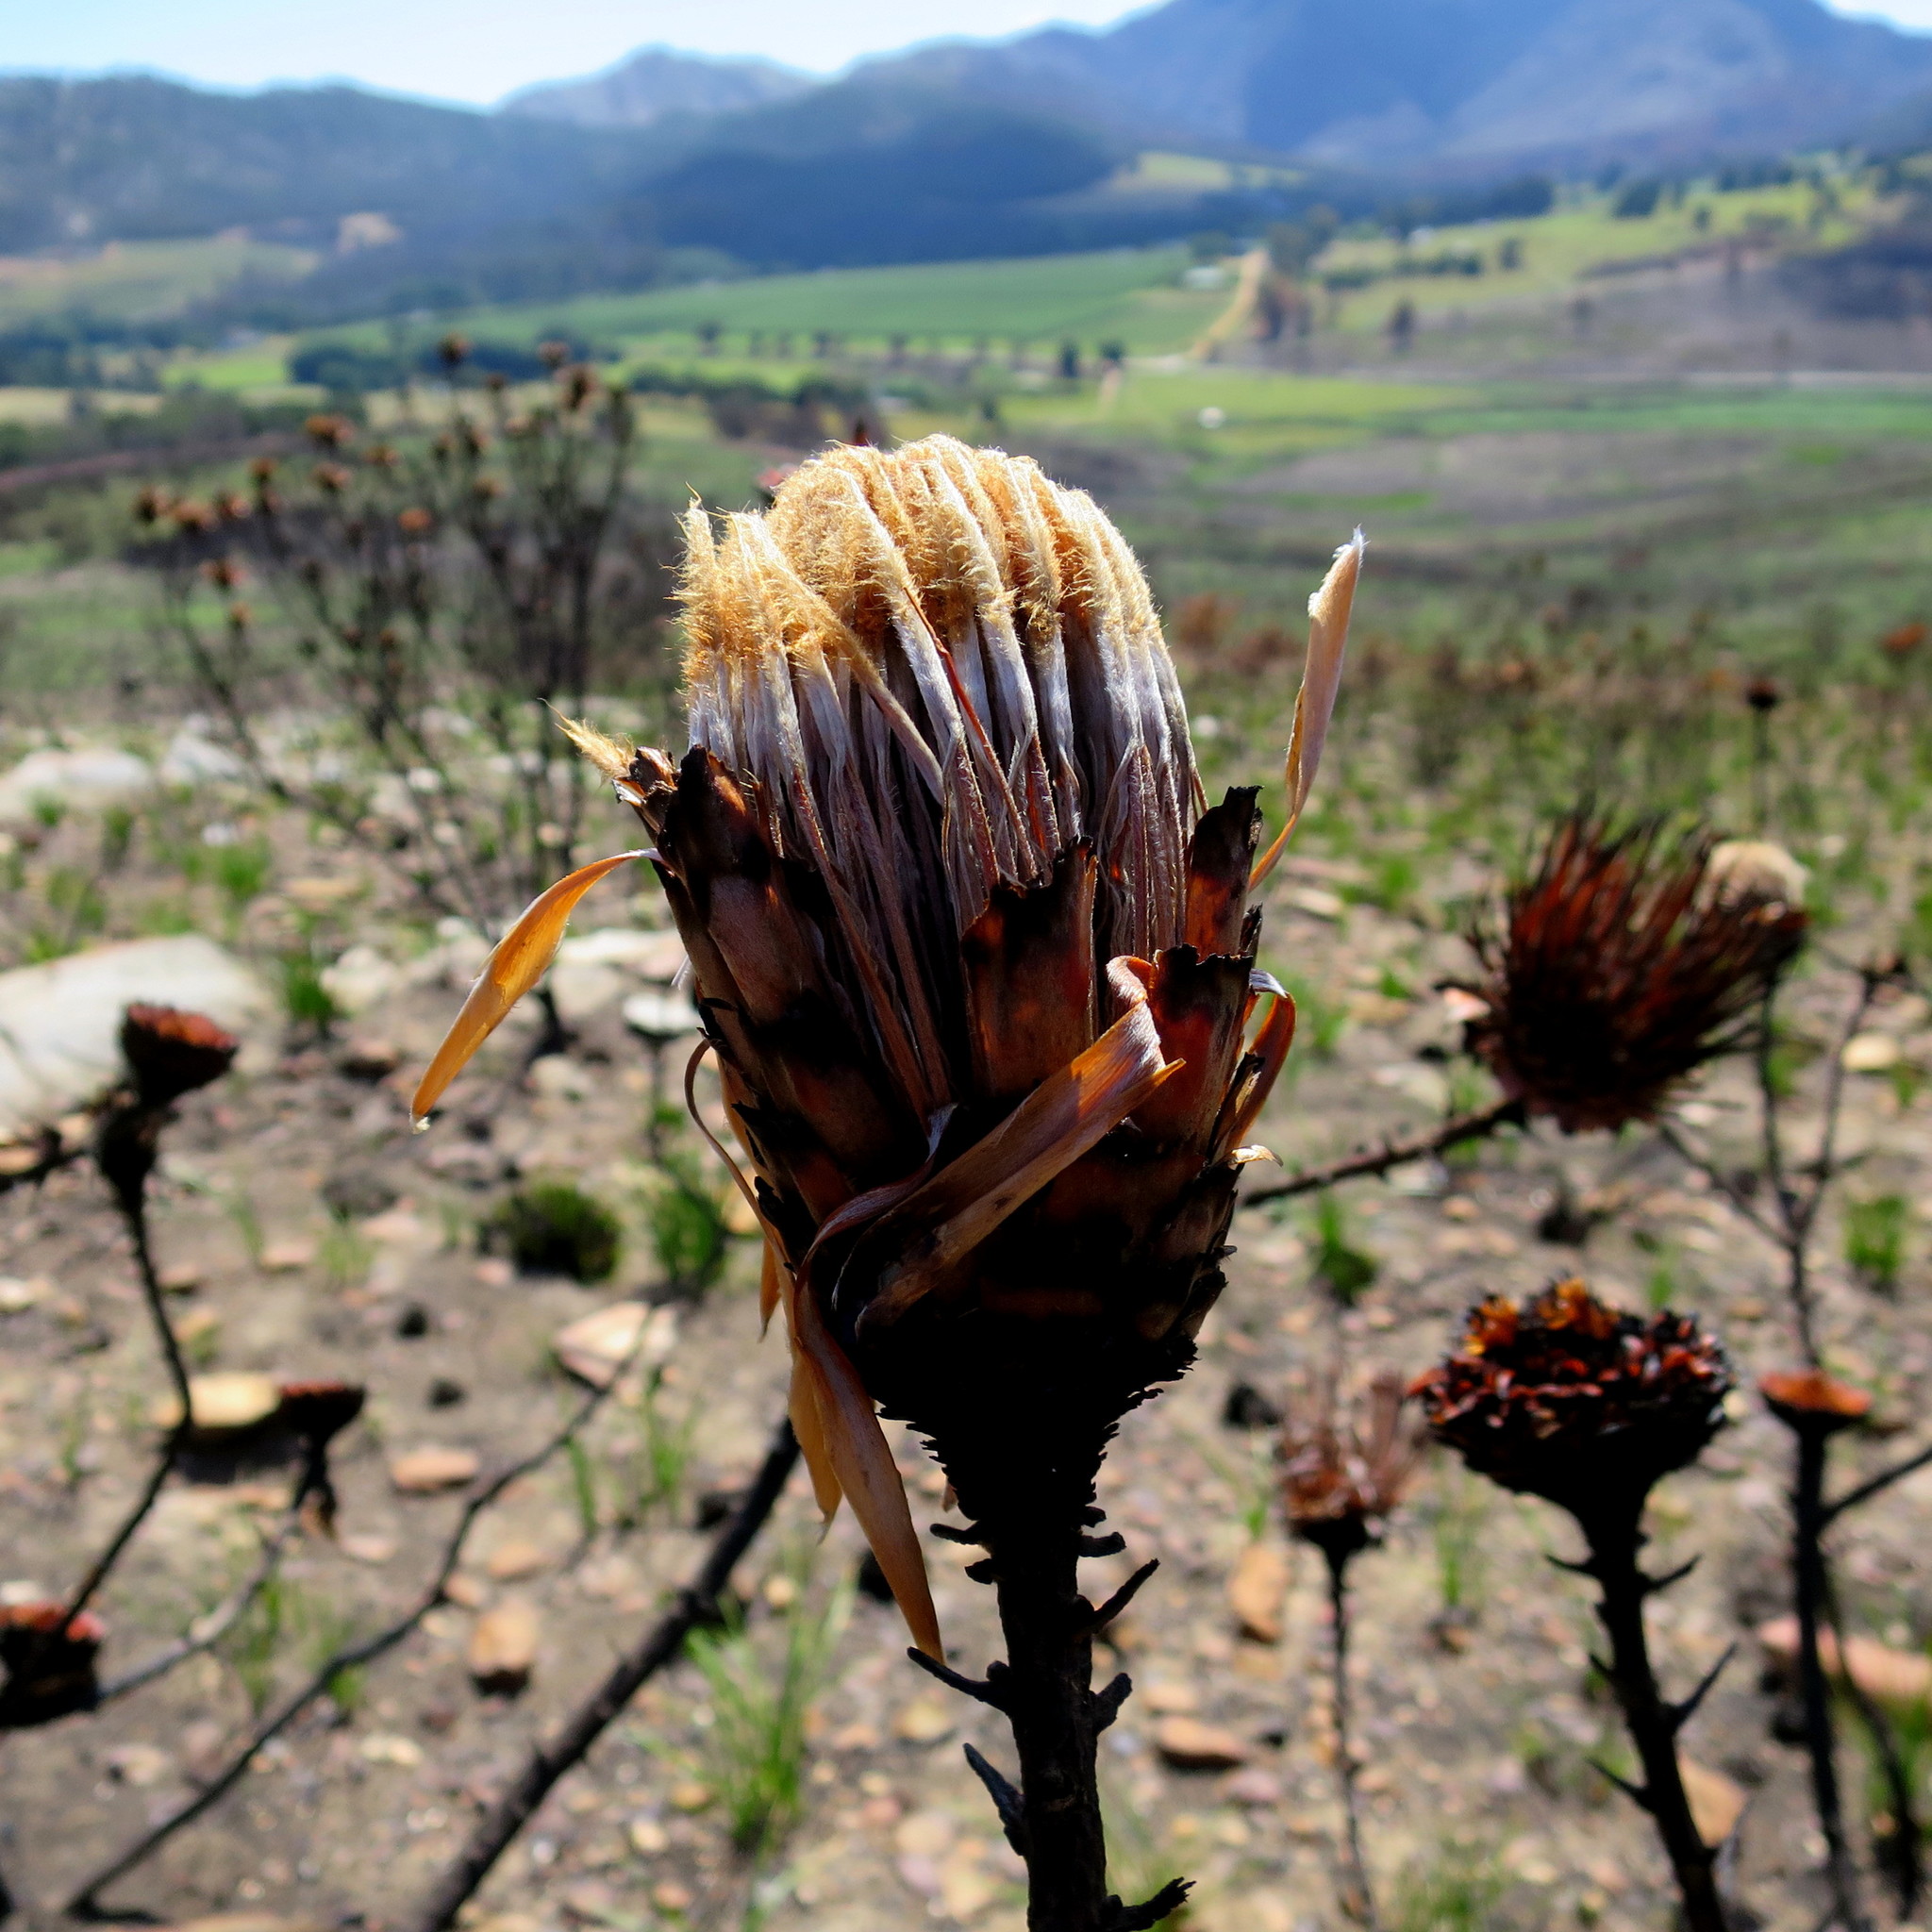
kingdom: Plantae
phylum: Tracheophyta
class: Magnoliopsida
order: Proteales
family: Proteaceae
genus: Protea
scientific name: Protea neriifolia
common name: Blue sugarbush
